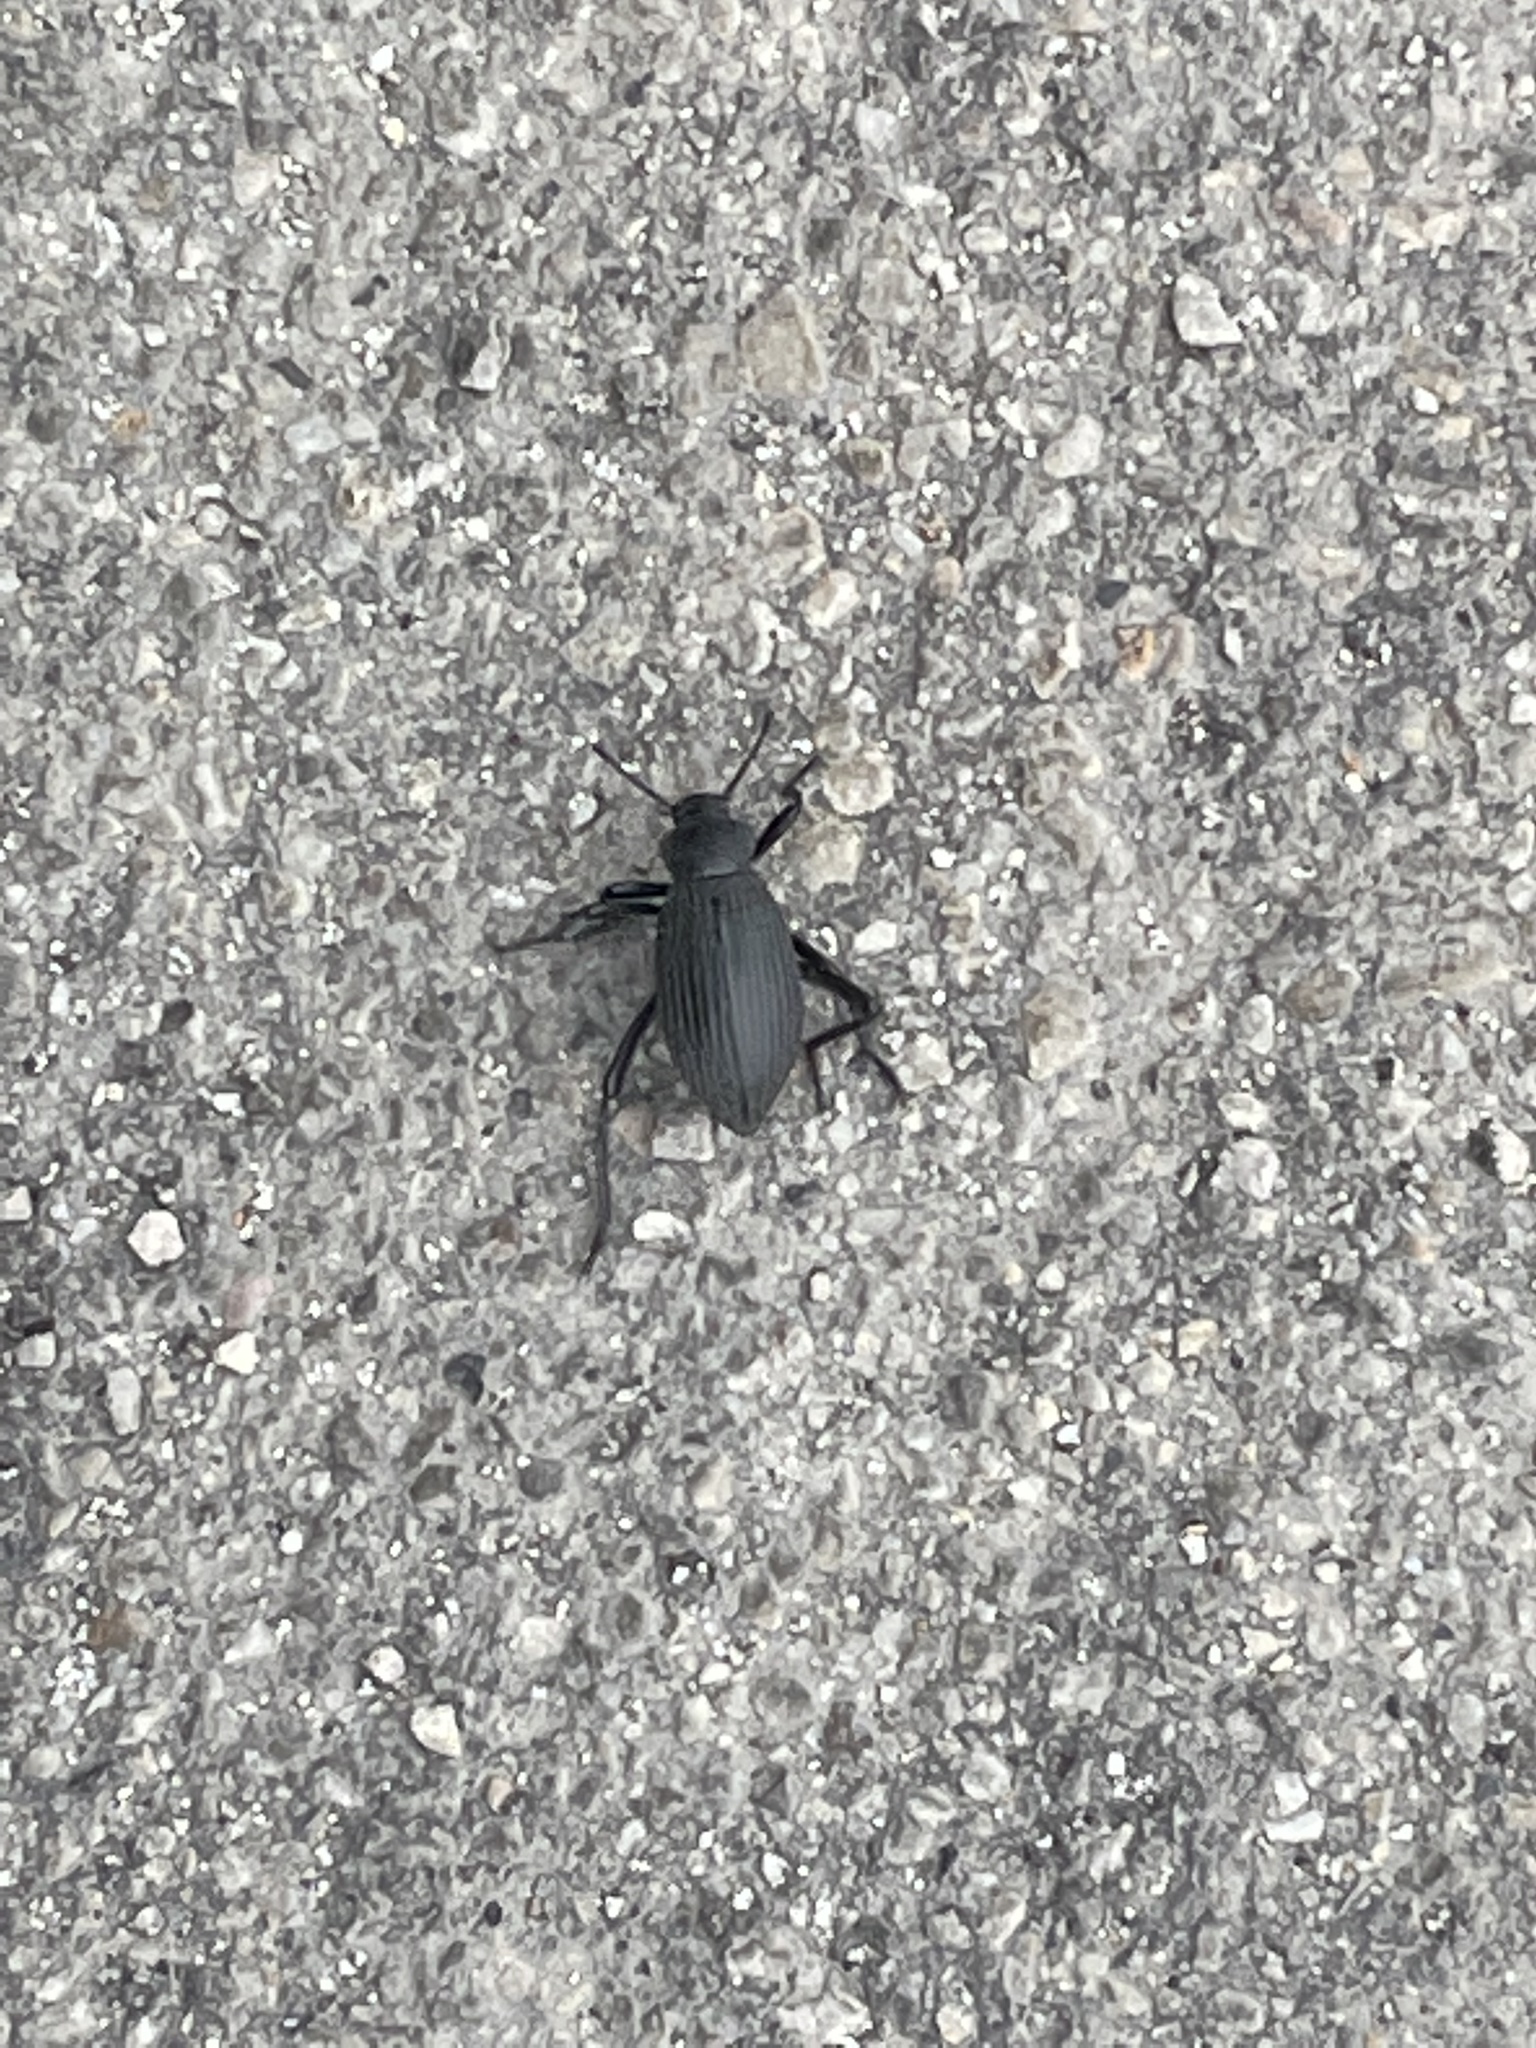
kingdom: Animalia
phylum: Arthropoda
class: Insecta
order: Coleoptera
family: Tenebrionidae
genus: Eleodes
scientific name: Eleodes hispilabris
